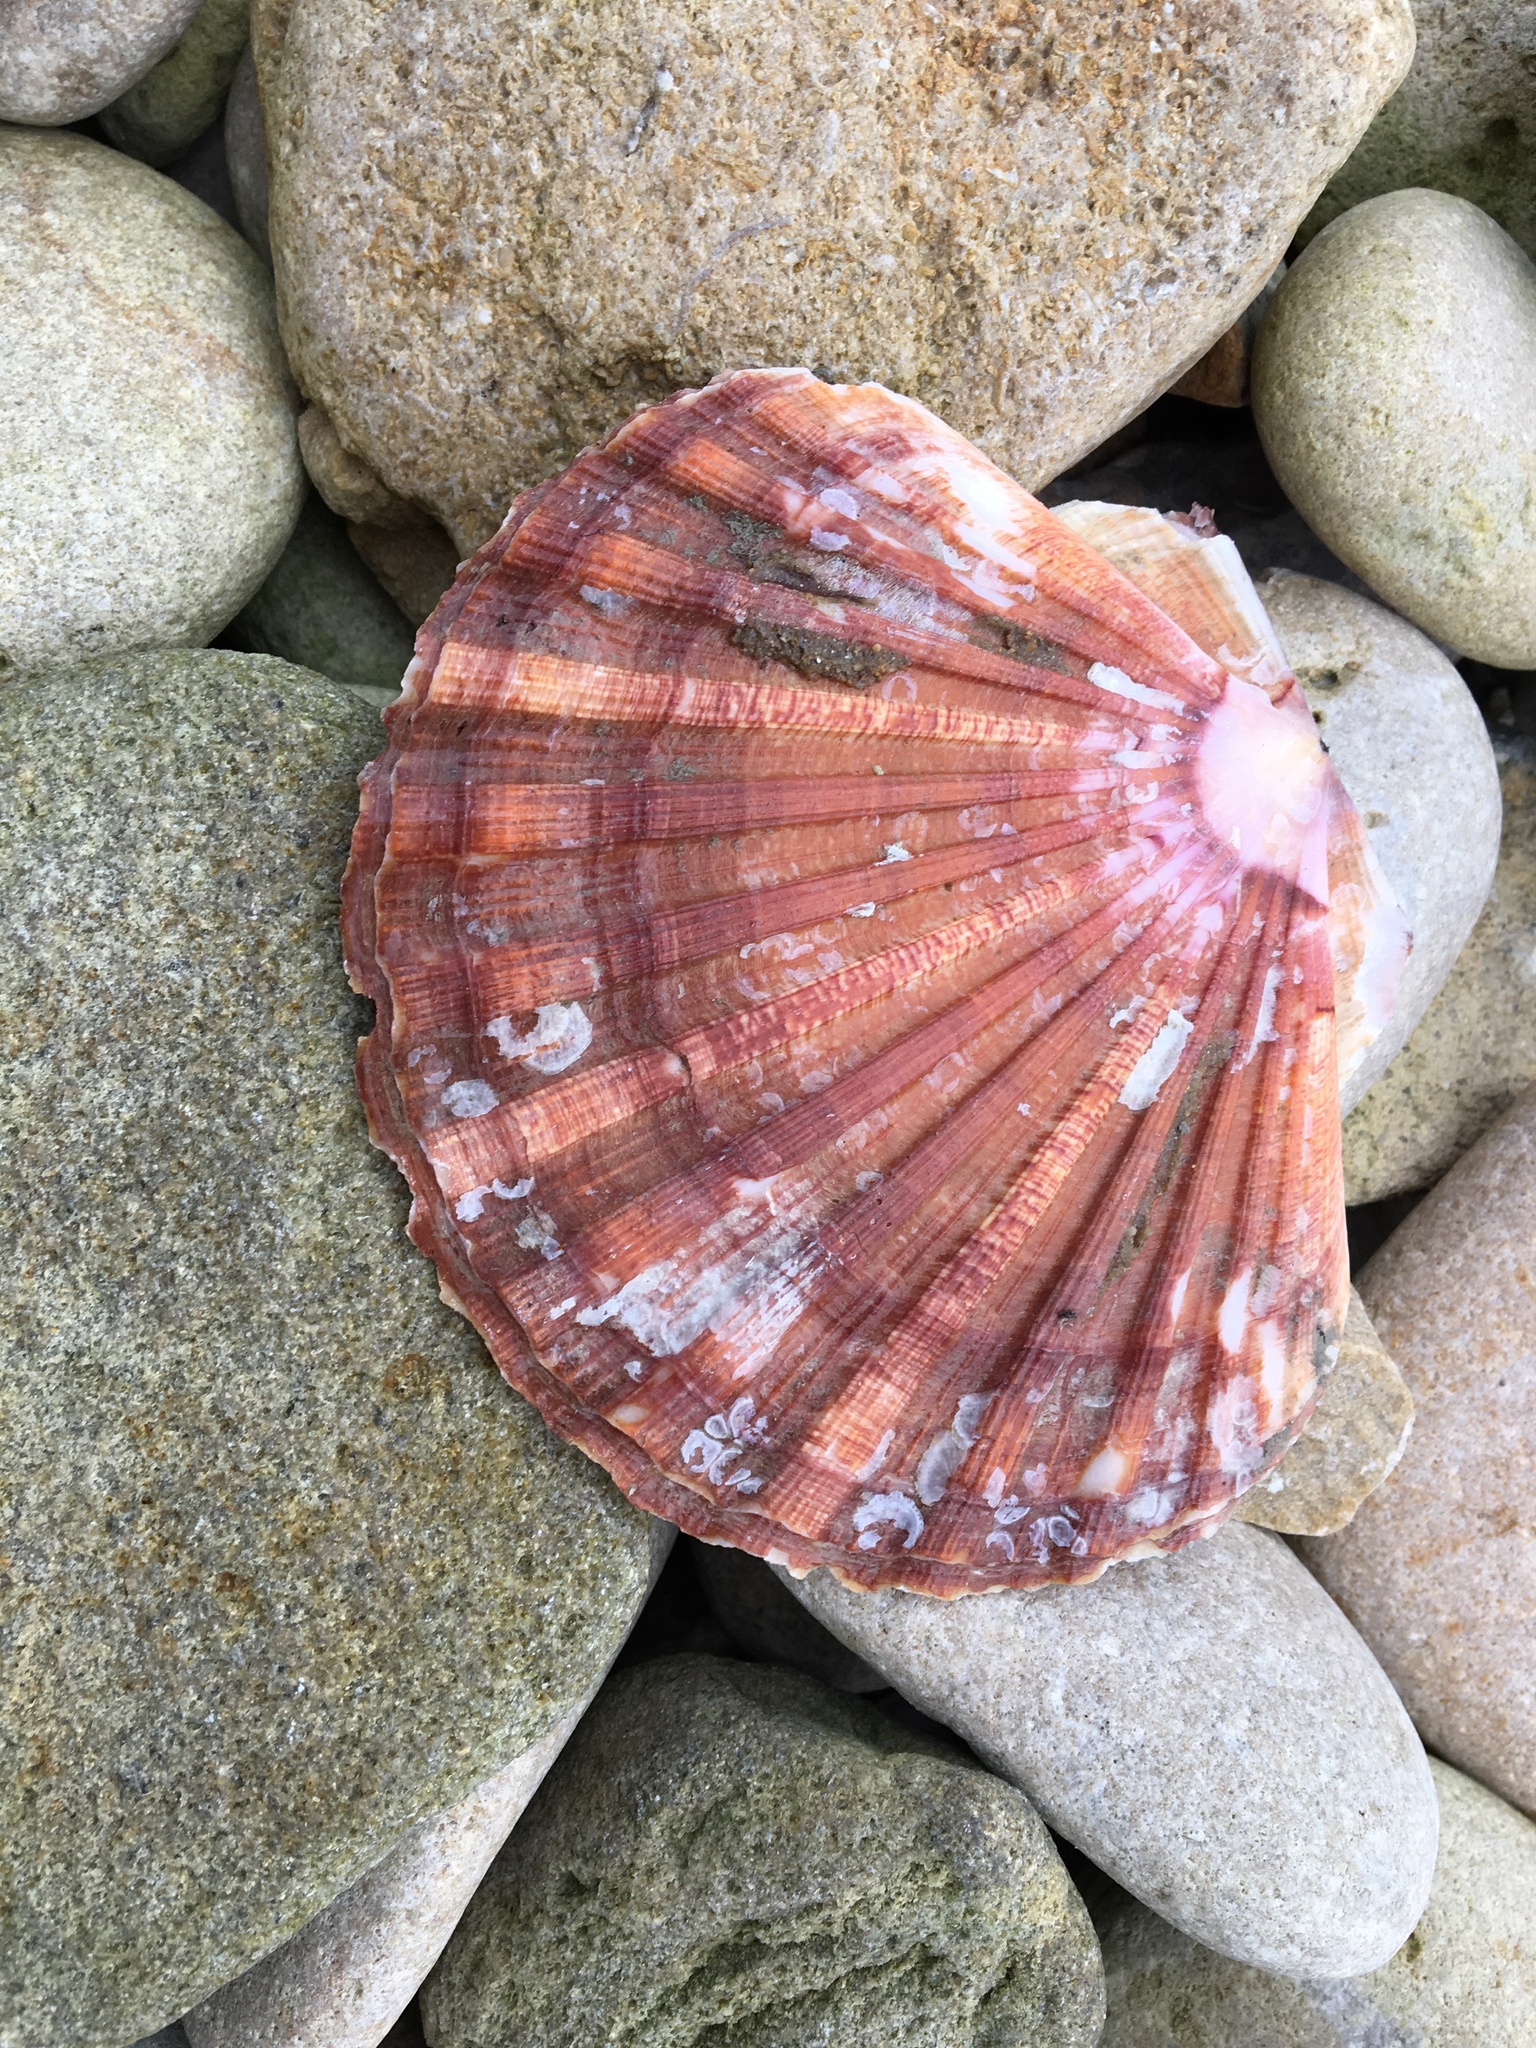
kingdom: Animalia
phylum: Mollusca
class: Bivalvia
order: Pectinida
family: Pectinidae
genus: Pecten
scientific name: Pecten maximus
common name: Great scallop
